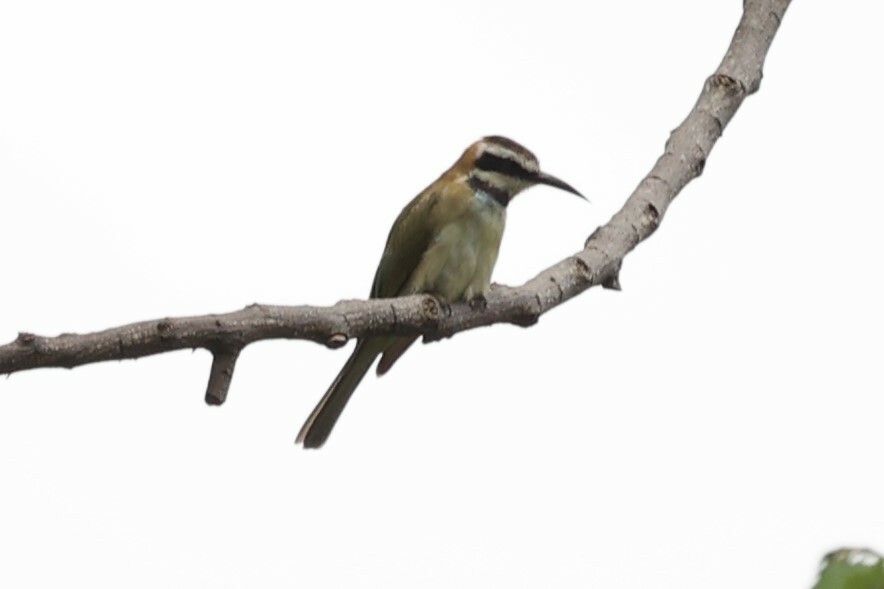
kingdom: Animalia
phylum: Chordata
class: Aves
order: Coraciiformes
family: Meropidae
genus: Merops
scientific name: Merops albicollis
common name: White-throated bee-eater
